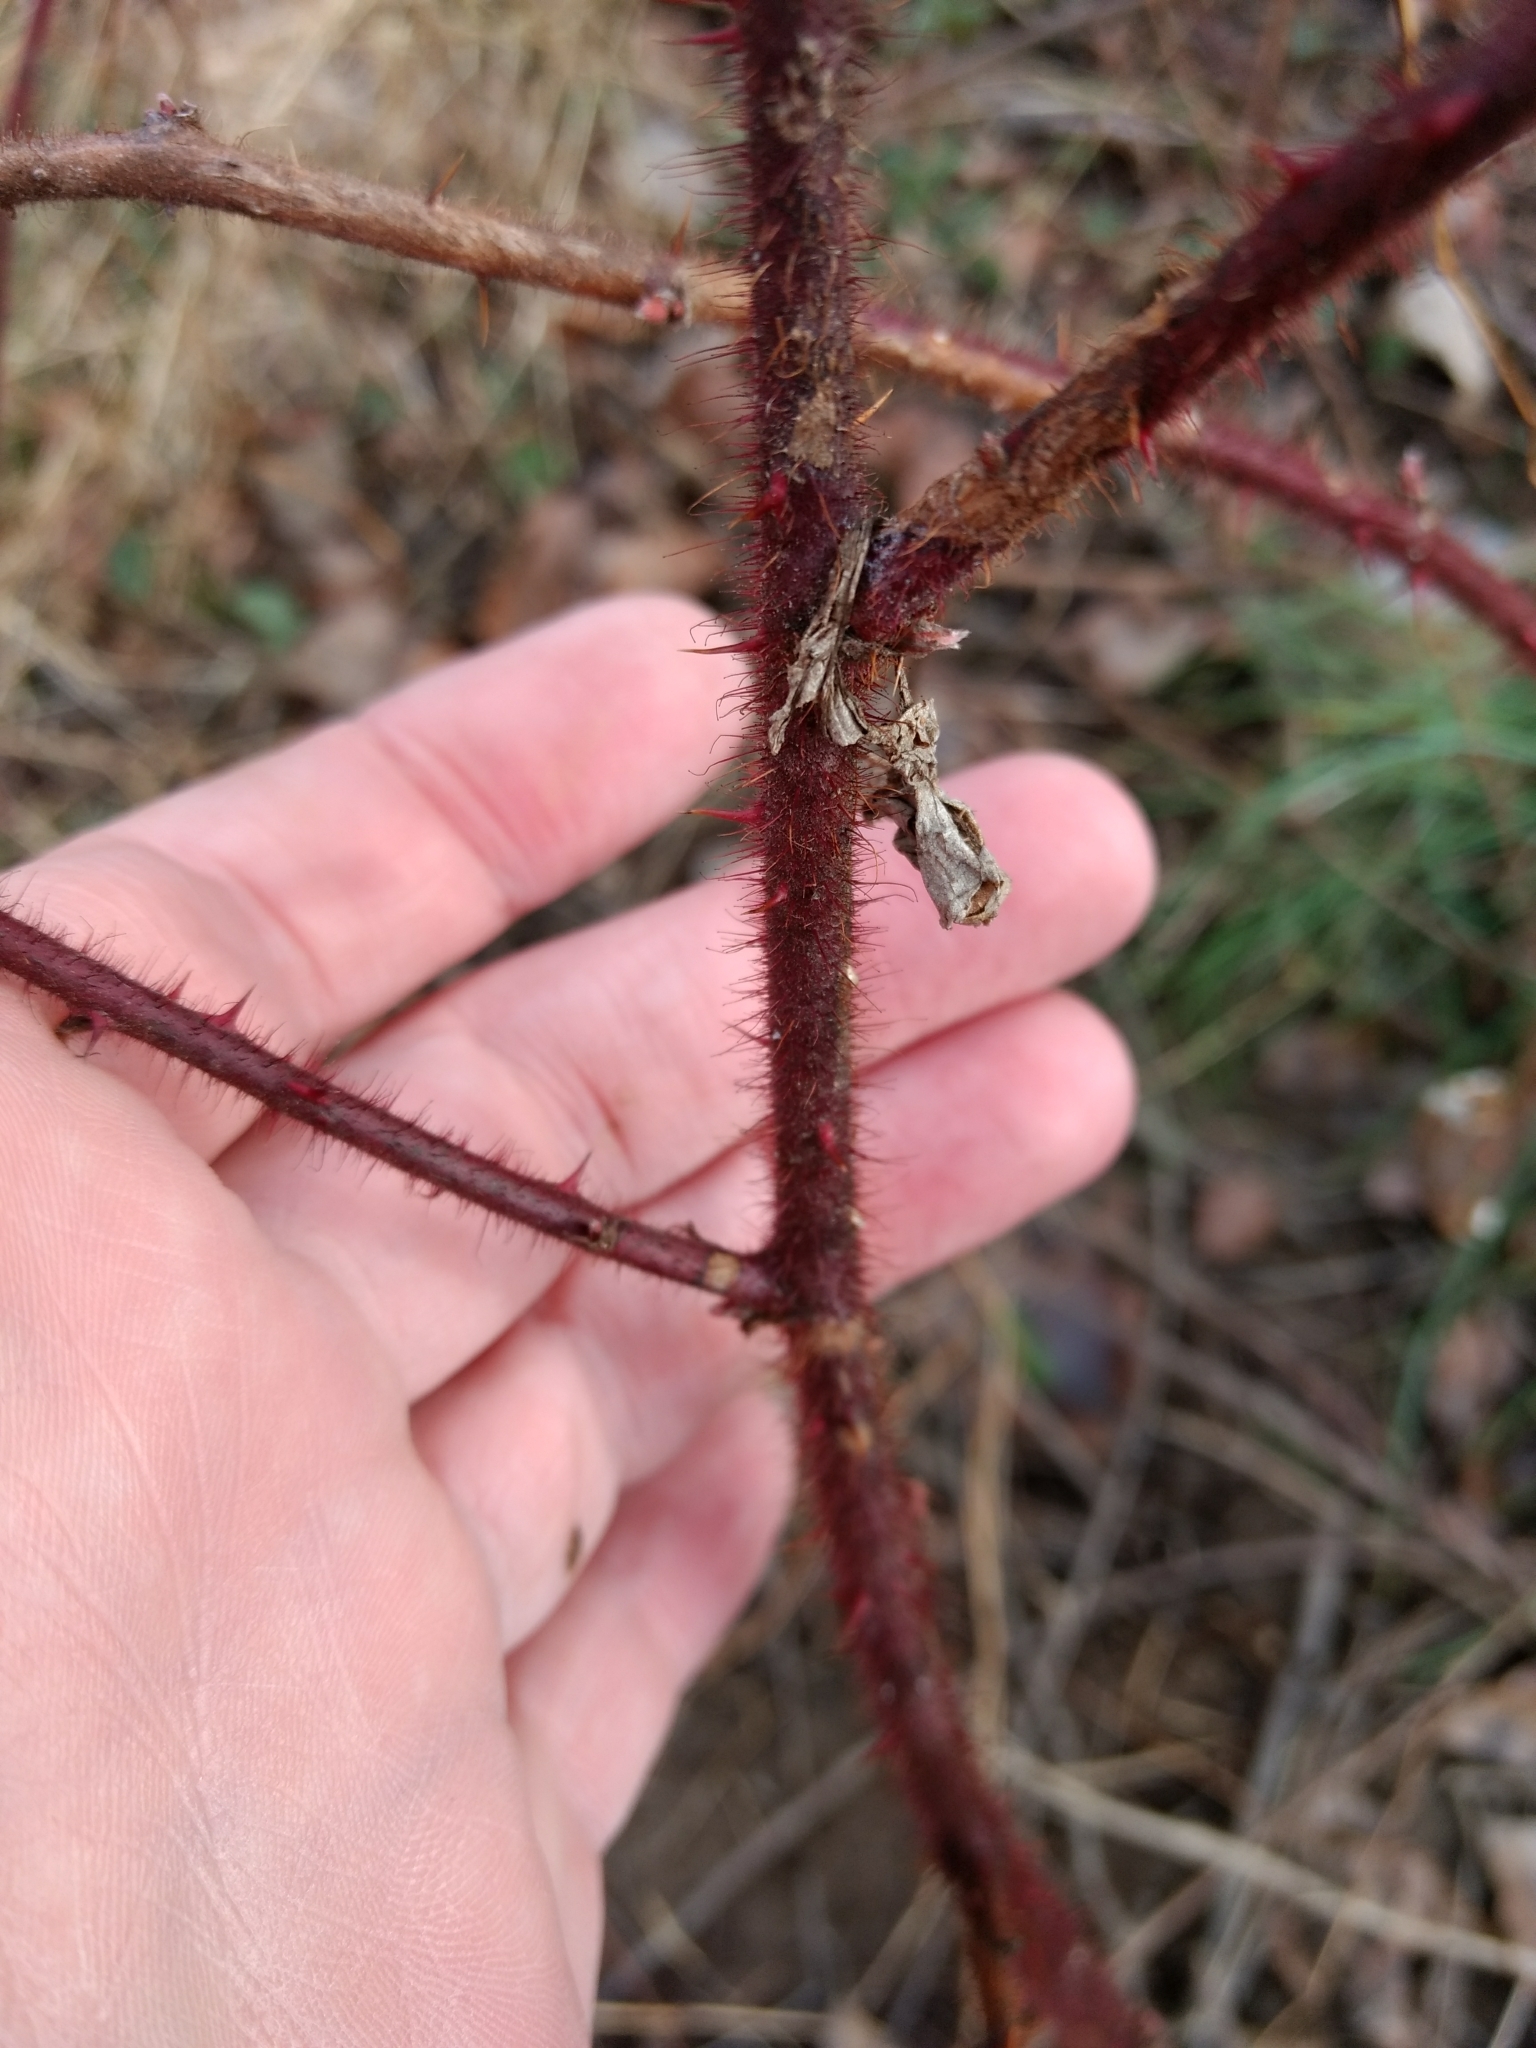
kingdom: Plantae
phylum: Tracheophyta
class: Magnoliopsida
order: Rosales
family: Rosaceae
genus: Rubus
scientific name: Rubus phoenicolasius
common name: Japanese wineberry
